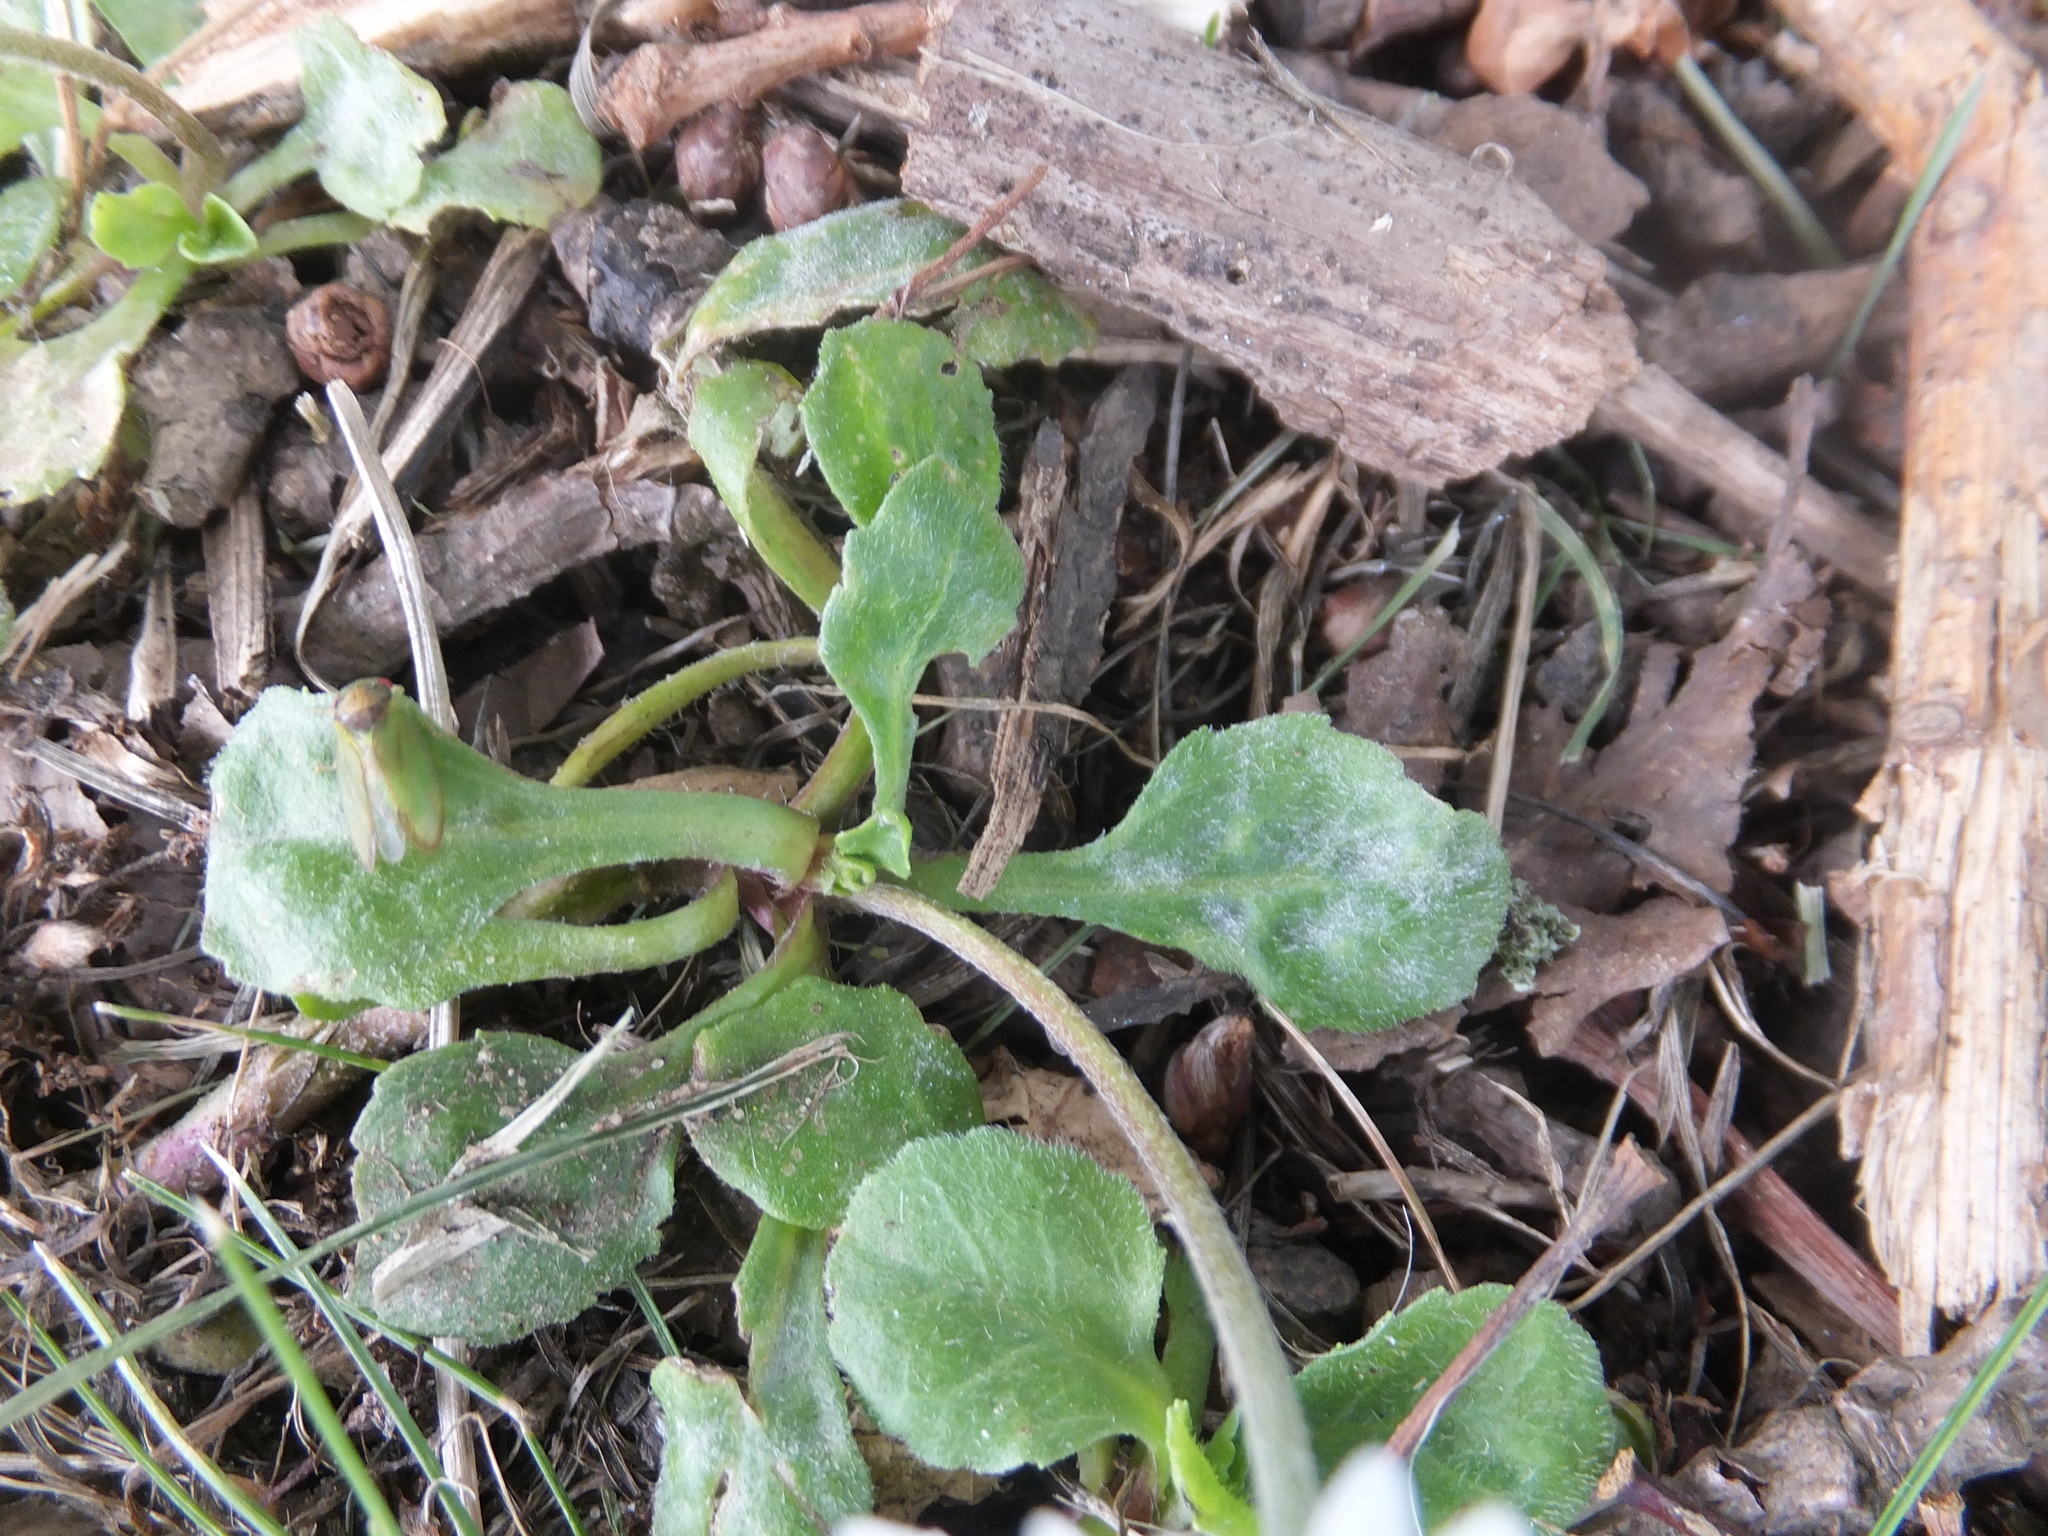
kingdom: Plantae
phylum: Tracheophyta
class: Magnoliopsida
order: Asterales
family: Asteraceae
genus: Bellis
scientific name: Bellis perennis
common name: Lawndaisy
